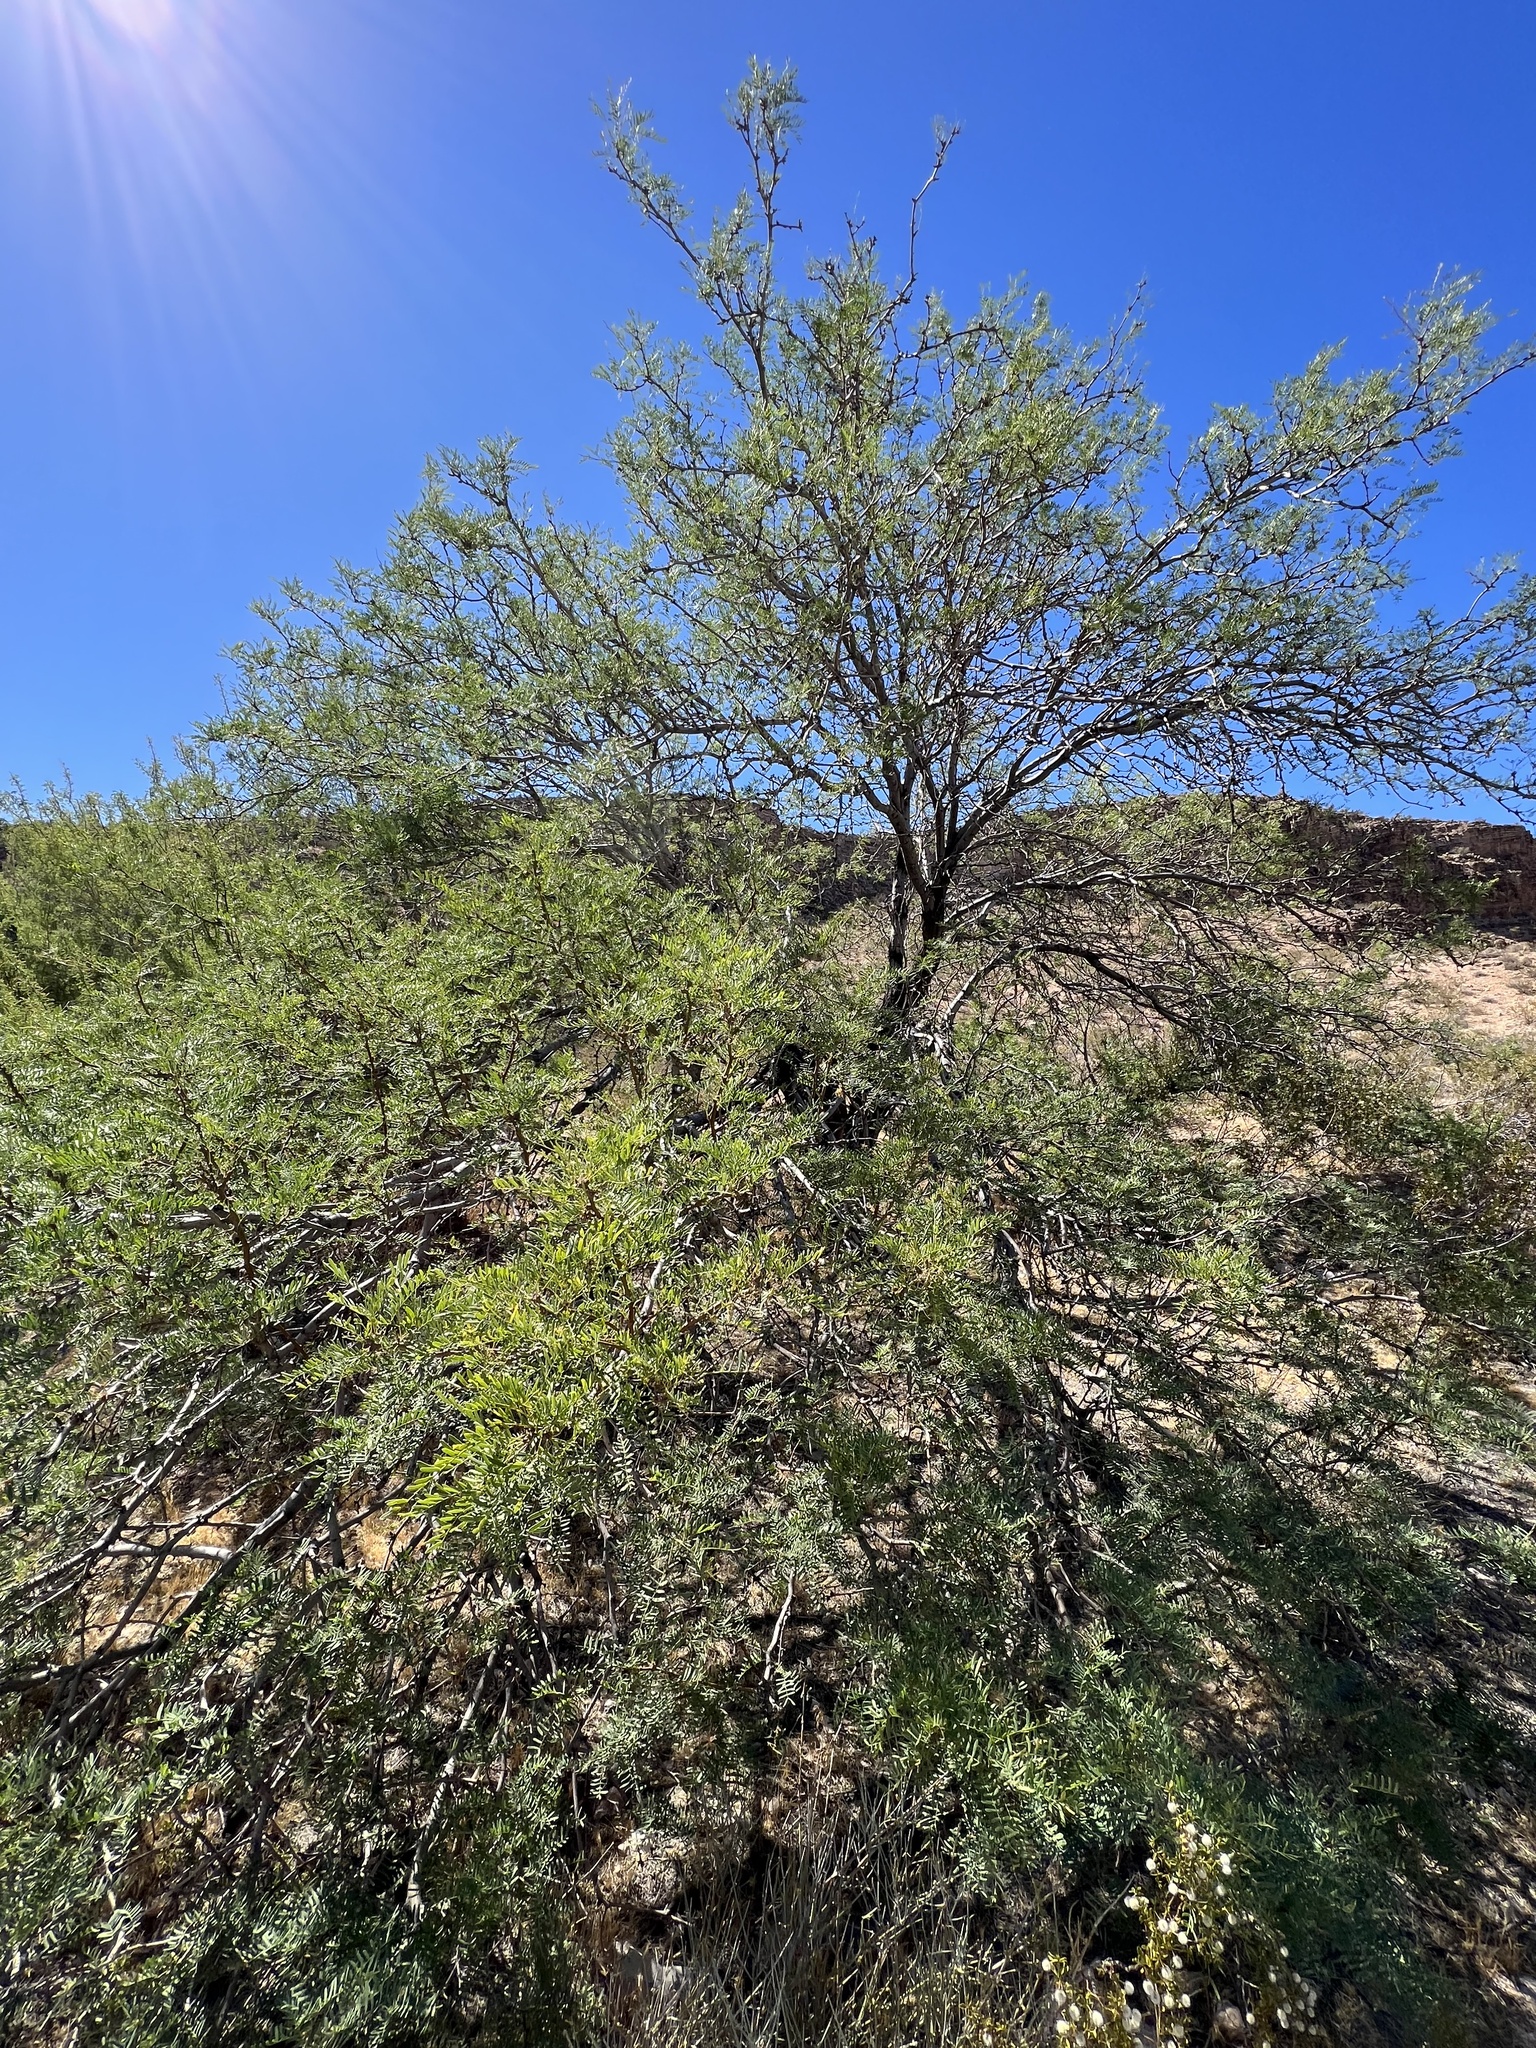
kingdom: Plantae
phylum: Tracheophyta
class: Magnoliopsida
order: Fabales
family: Fabaceae
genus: Prosopis
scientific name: Prosopis pubescens
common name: Screw-bean
